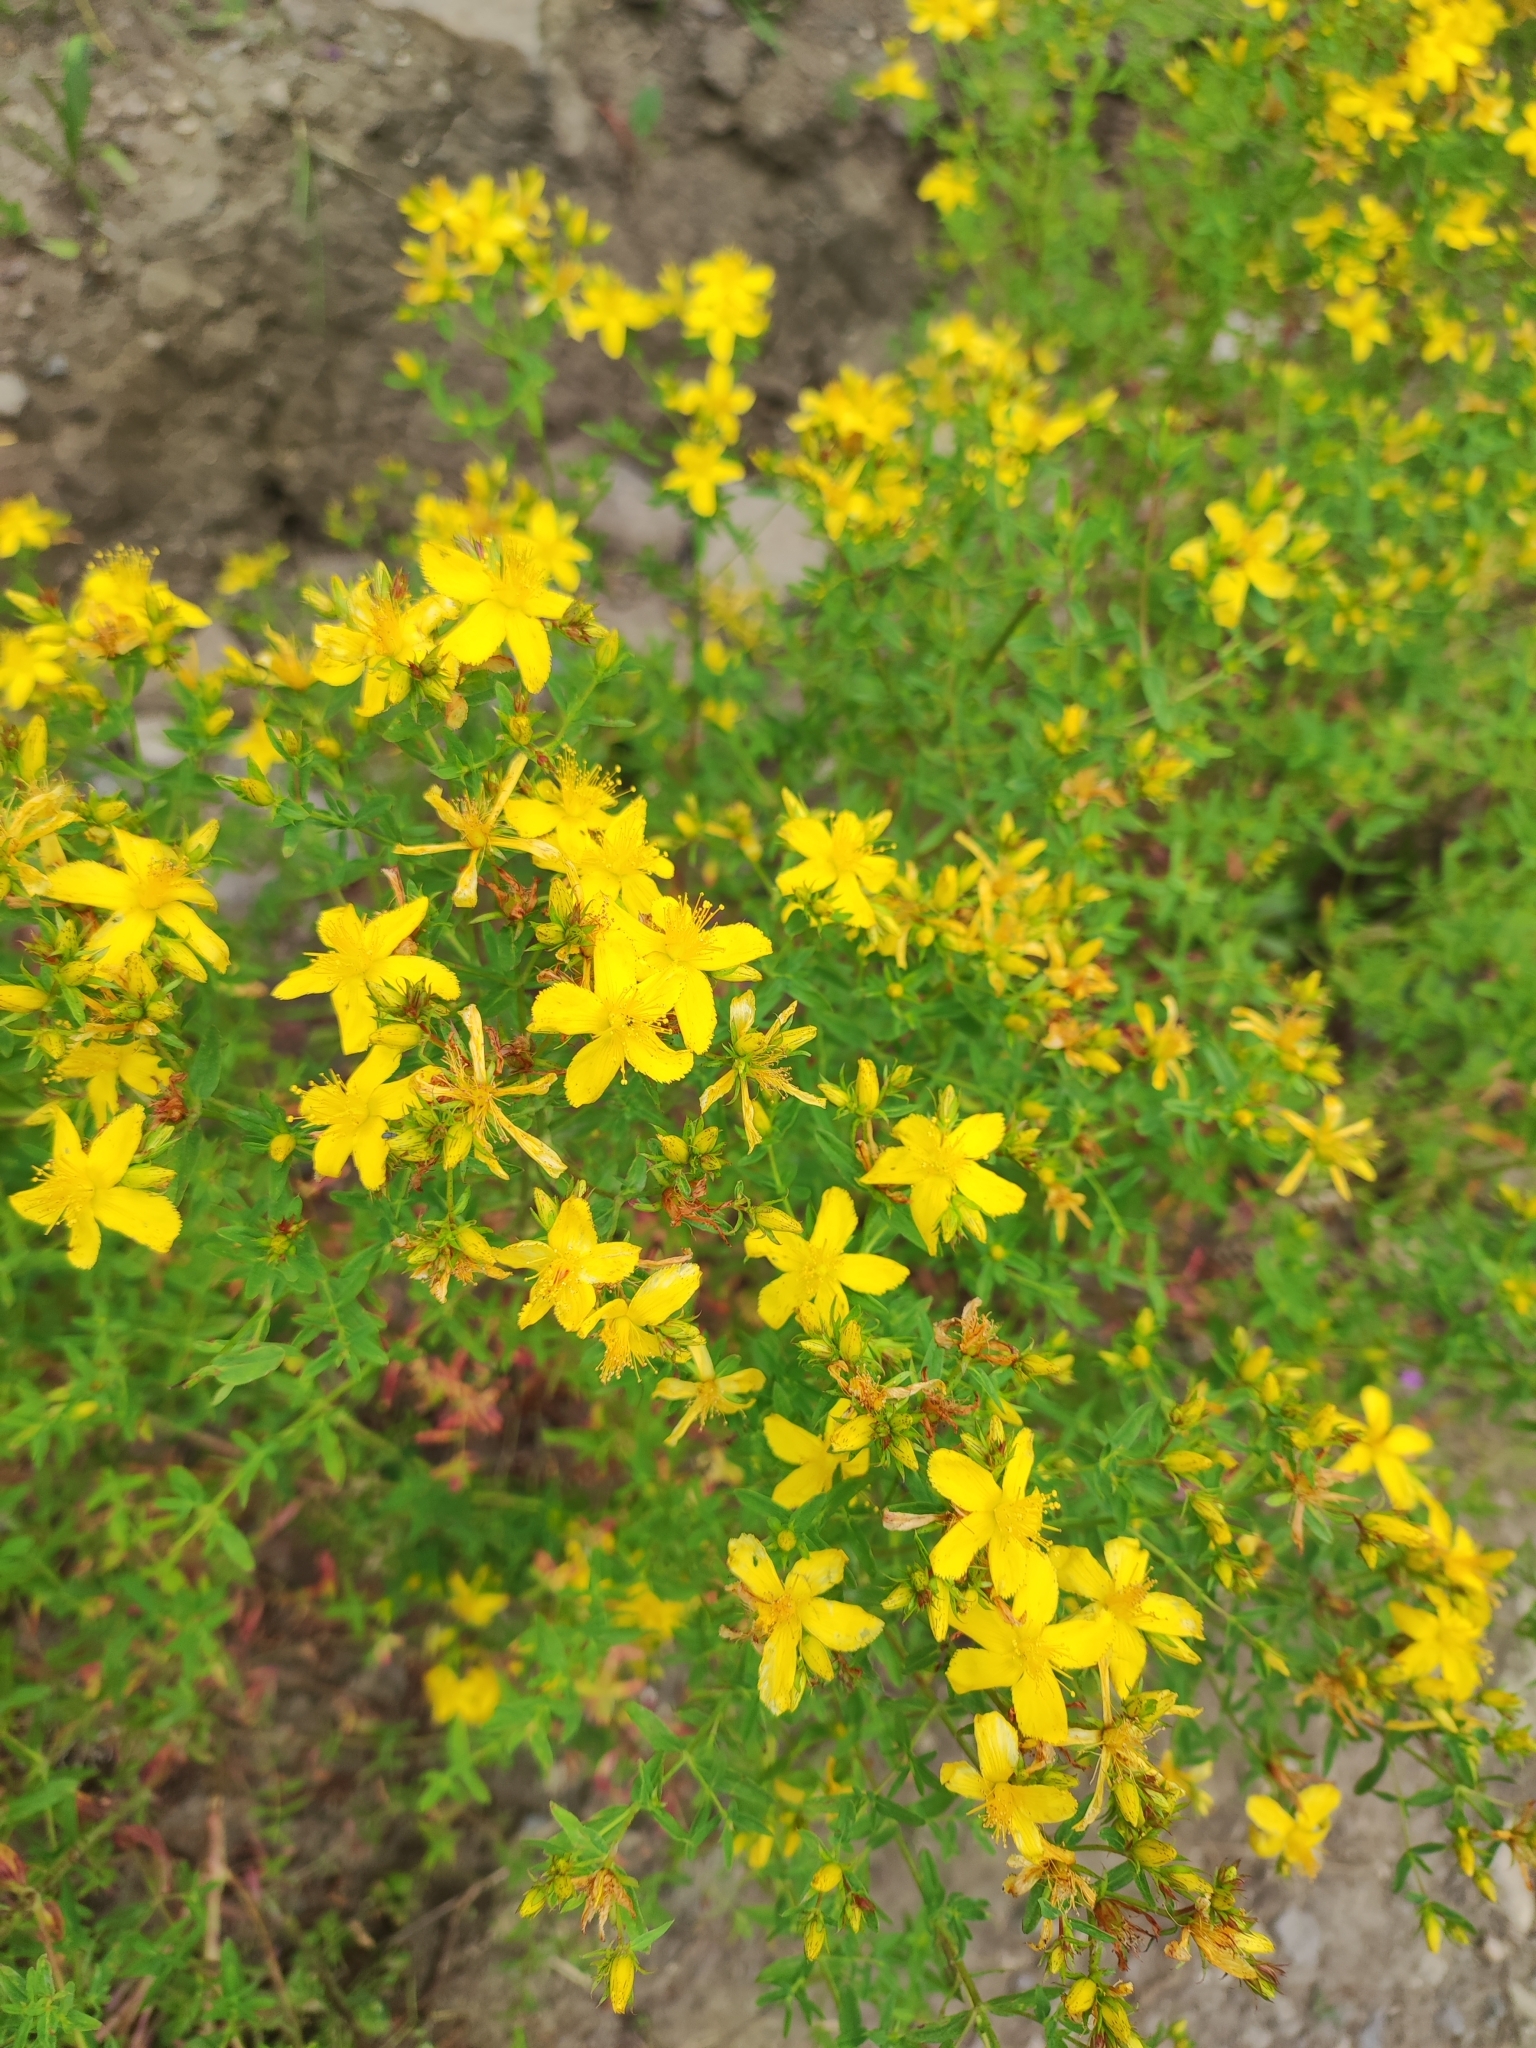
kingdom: Plantae
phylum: Tracheophyta
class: Magnoliopsida
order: Malpighiales
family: Hypericaceae
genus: Hypericum
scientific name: Hypericum perforatum
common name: Common st. johnswort
